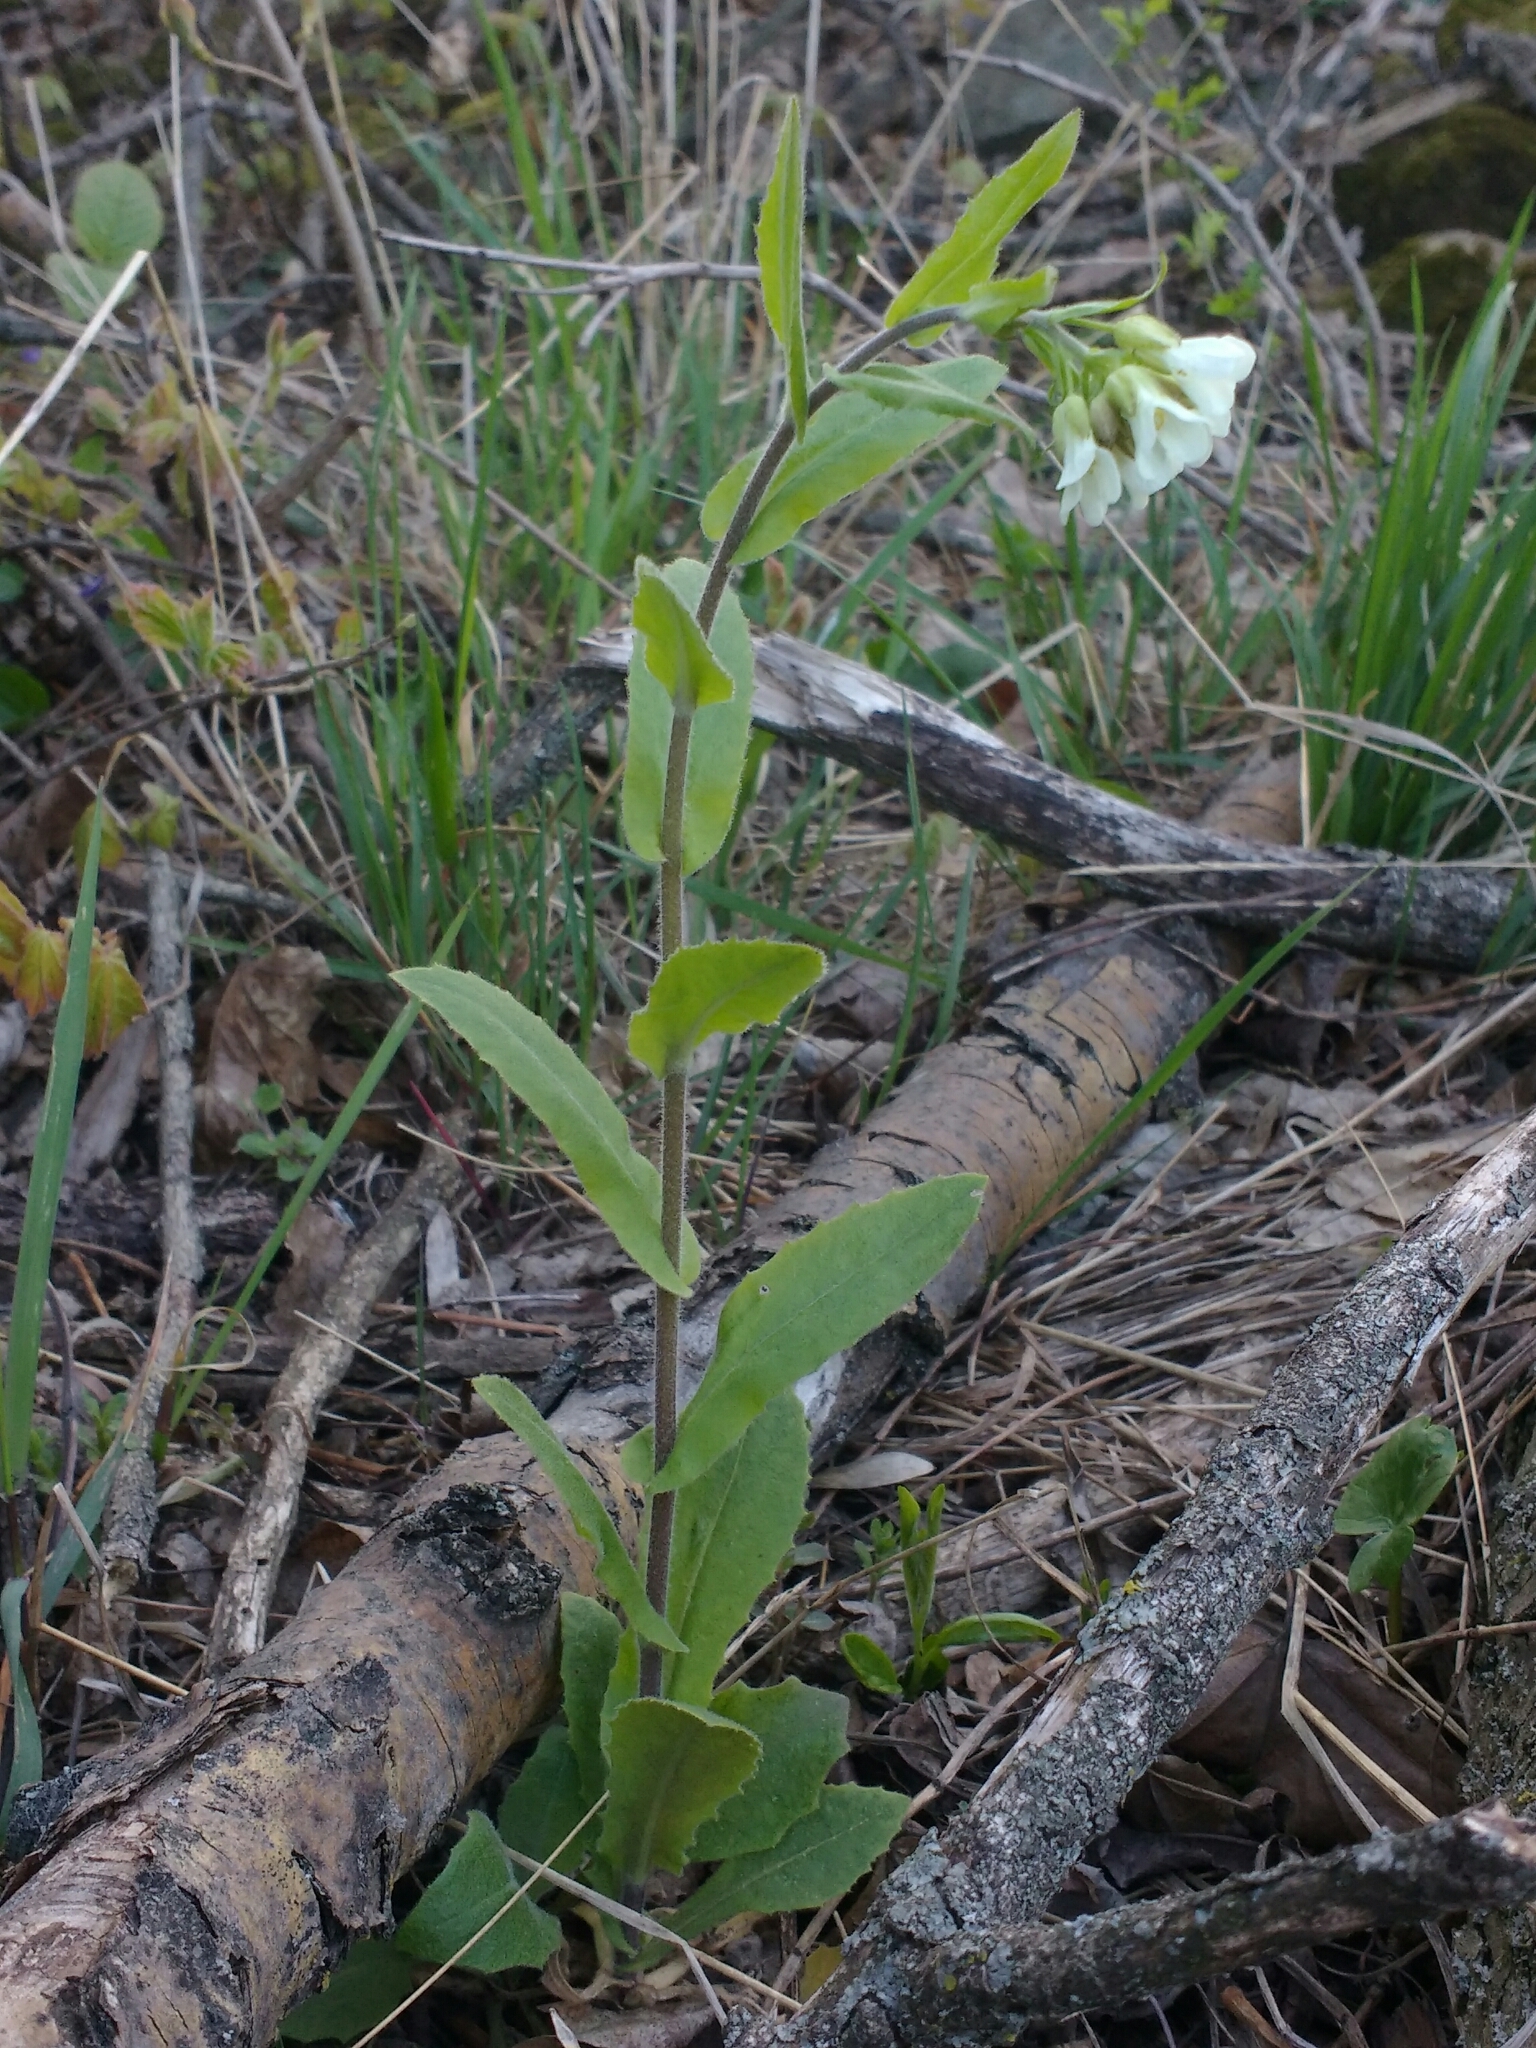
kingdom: Plantae
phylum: Tracheophyta
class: Magnoliopsida
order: Brassicales
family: Brassicaceae
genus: Pseudoturritis
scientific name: Pseudoturritis turrita
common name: Tower cress
